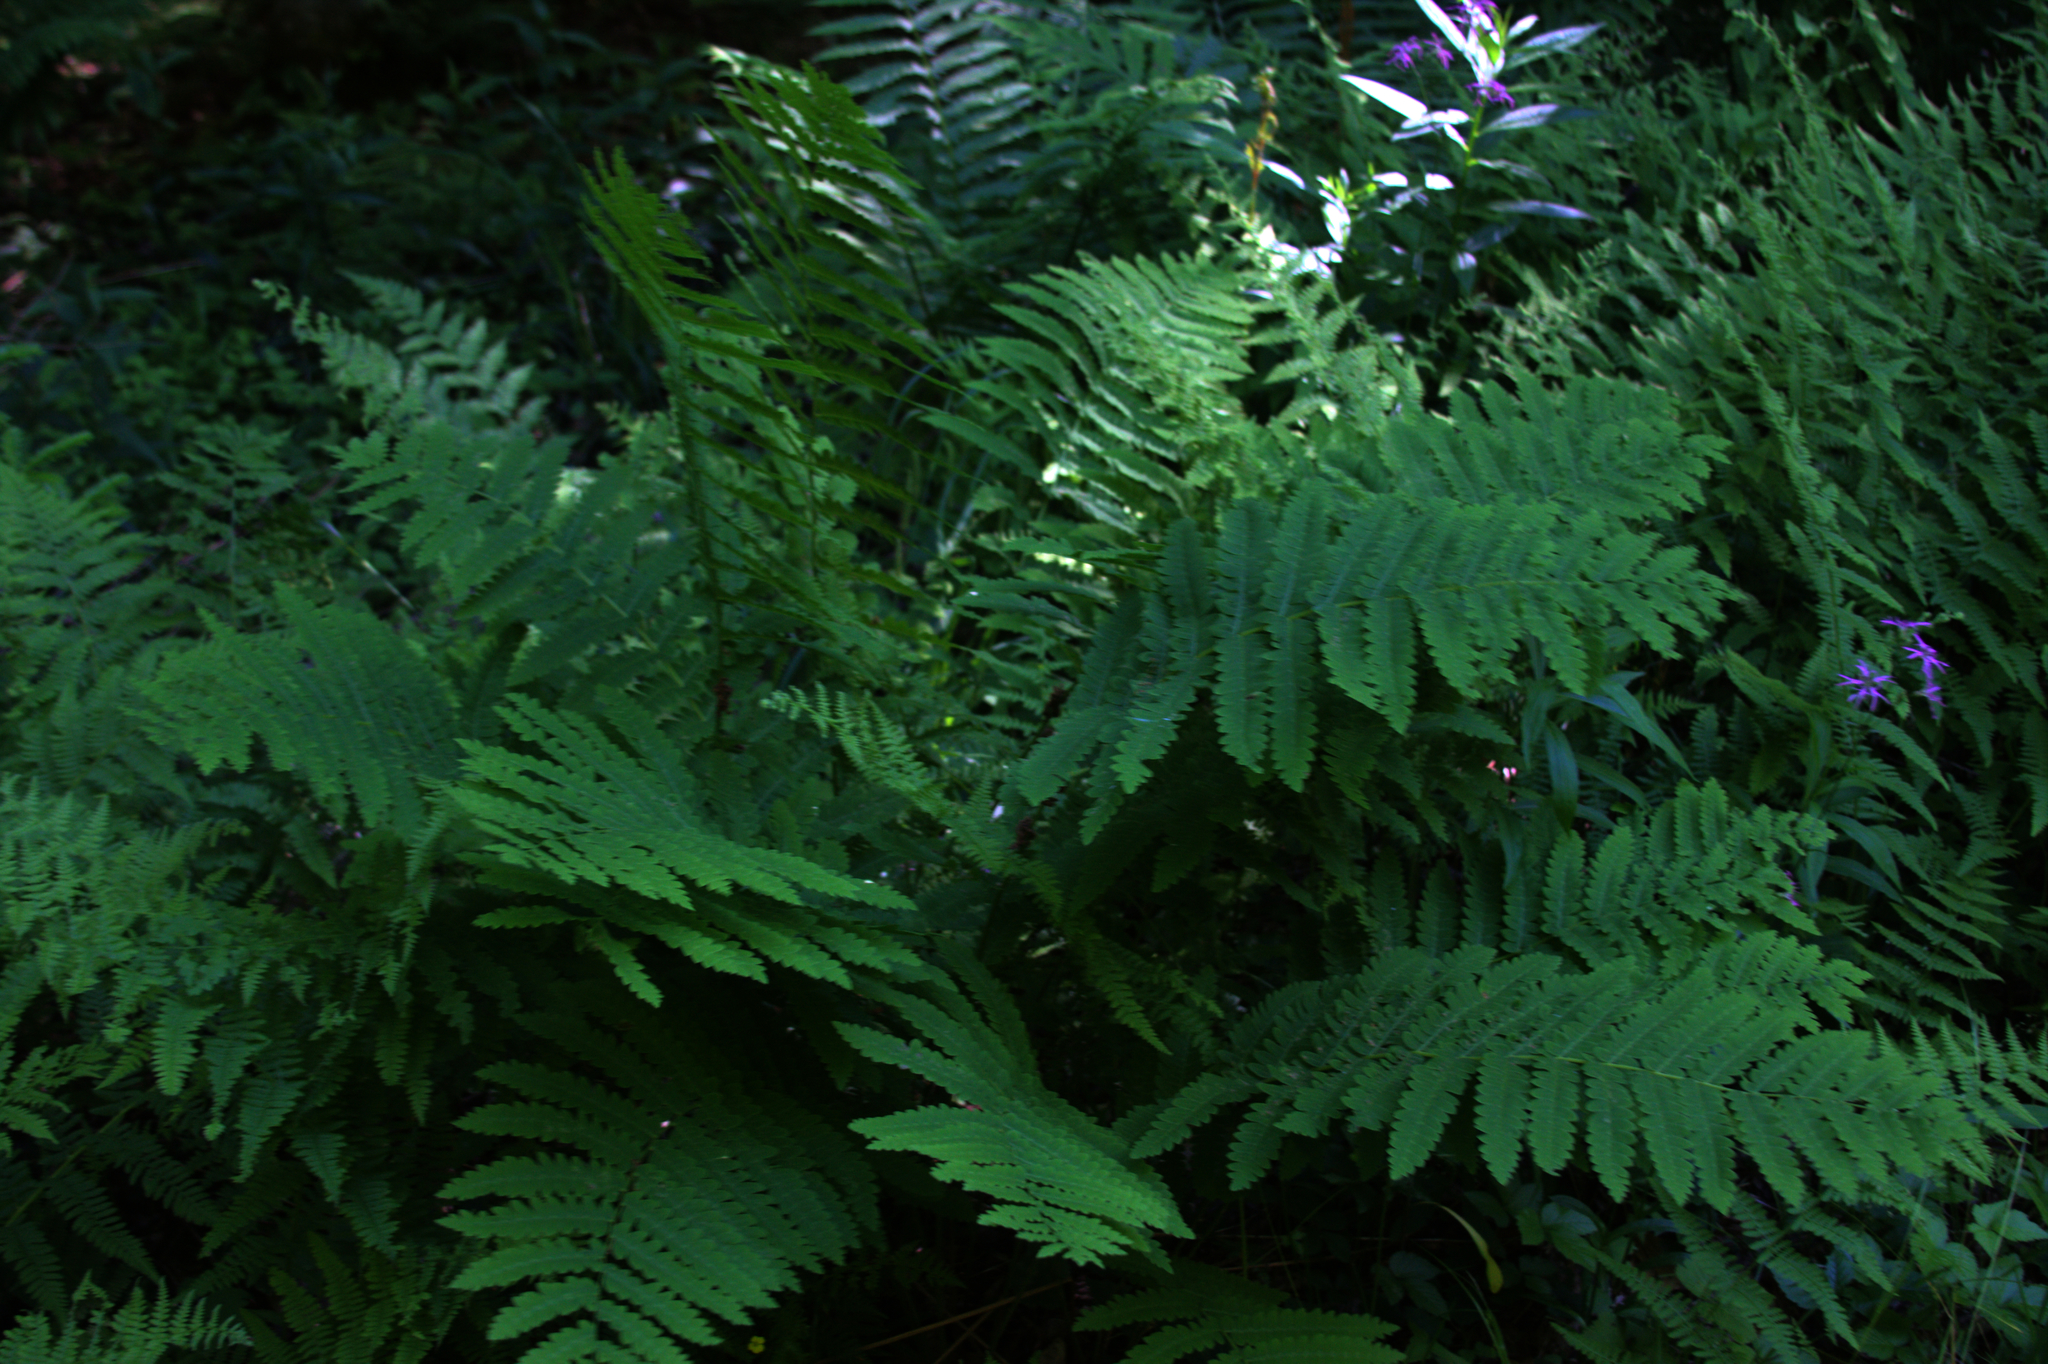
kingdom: Plantae
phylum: Tracheophyta
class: Polypodiopsida
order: Osmundales
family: Osmundaceae
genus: Claytosmunda
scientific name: Claytosmunda claytoniana
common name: Clayton's fern
